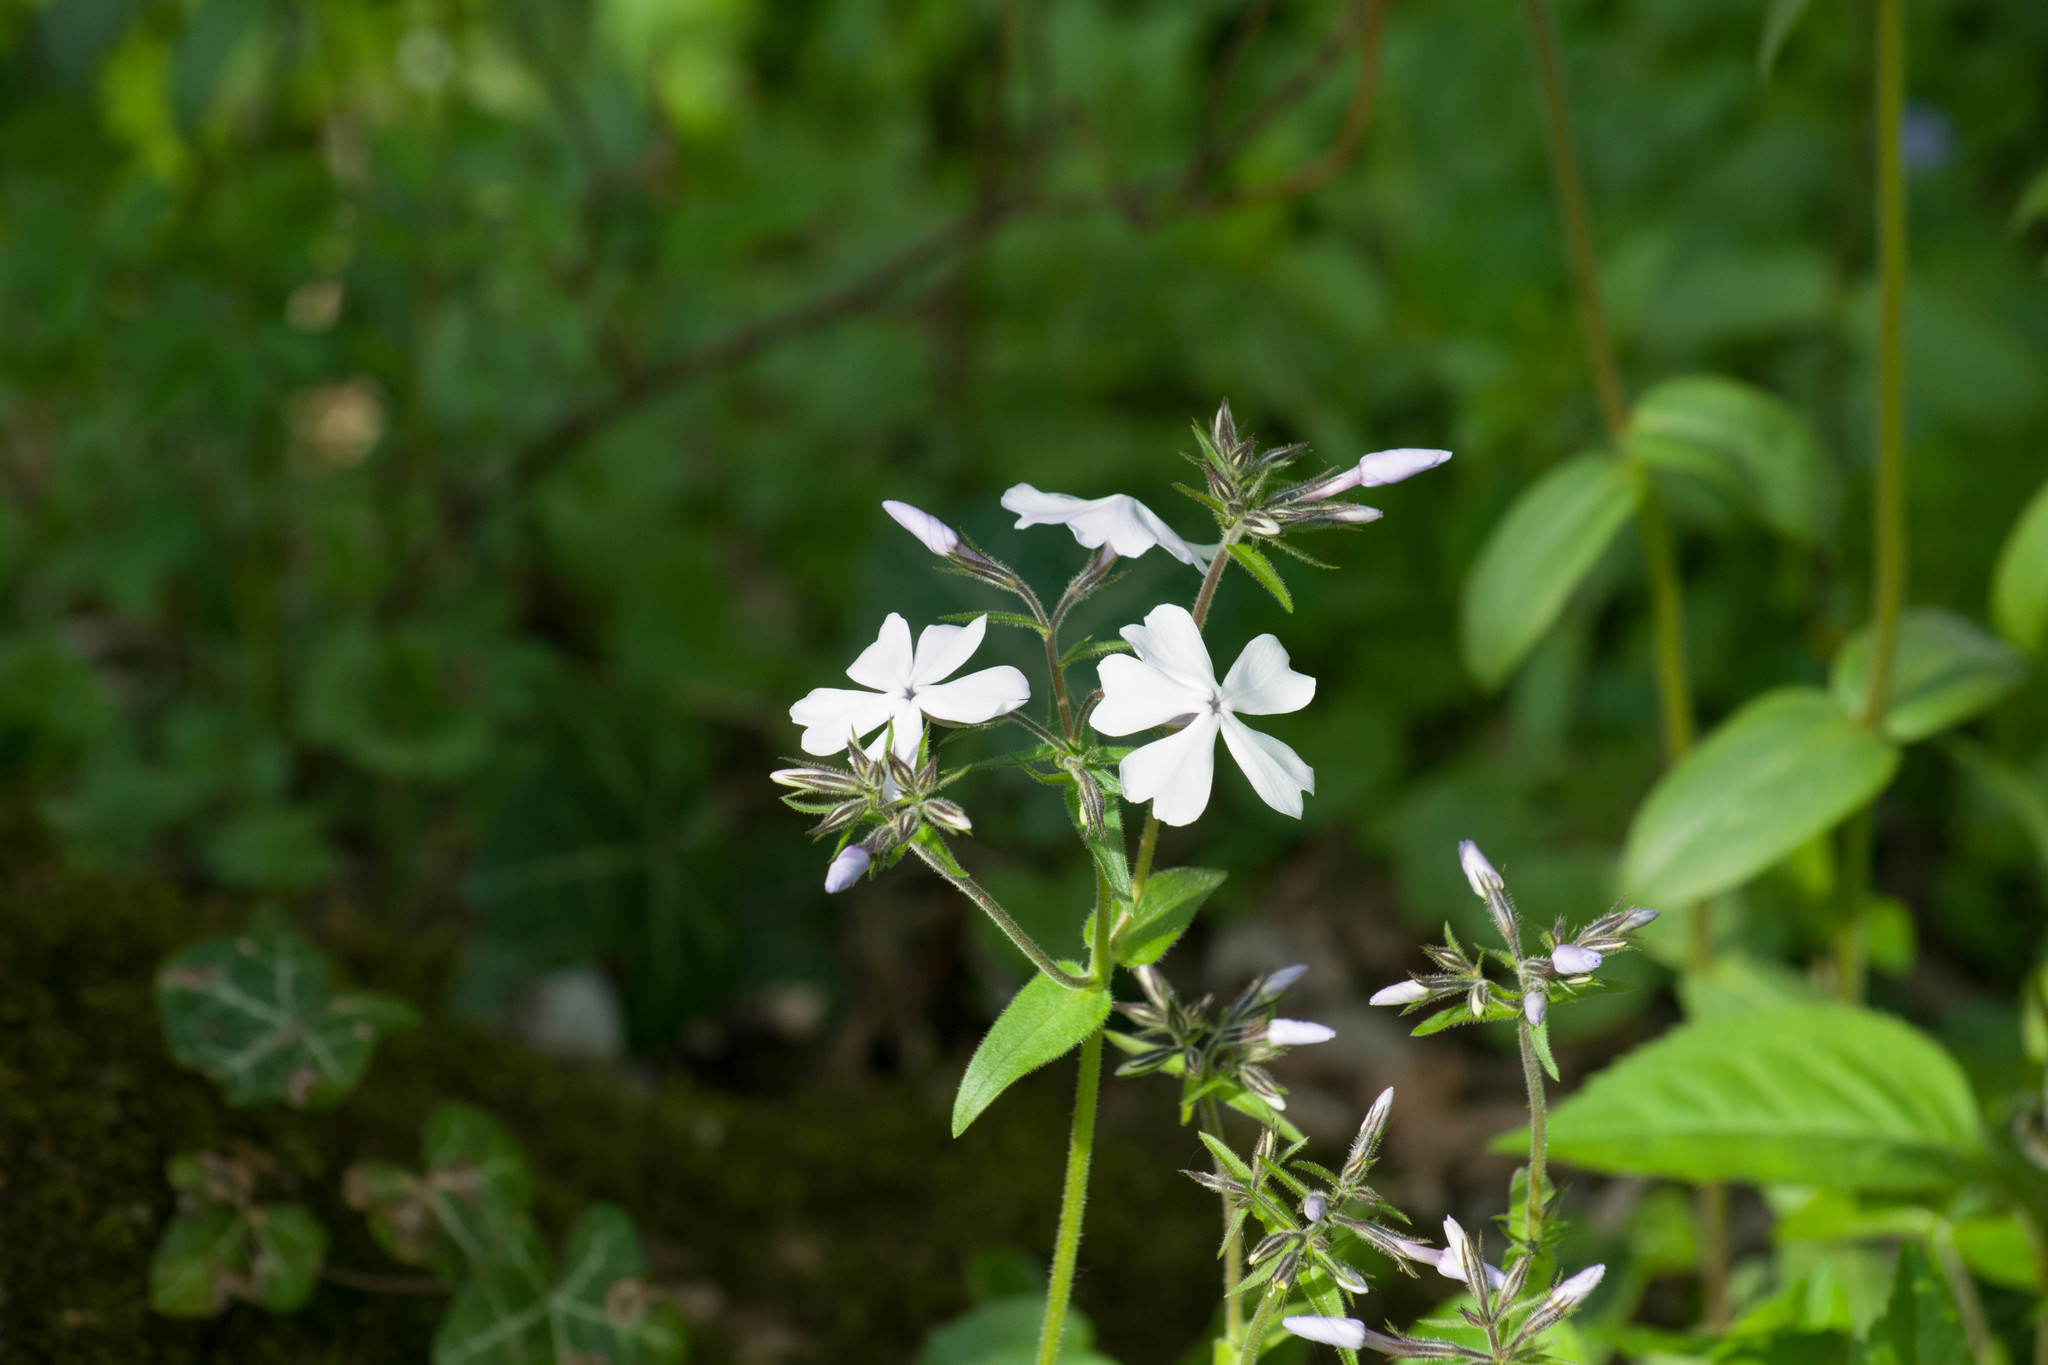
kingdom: Plantae
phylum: Tracheophyta
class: Magnoliopsida
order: Ericales
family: Polemoniaceae
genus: Phlox
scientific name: Phlox divaricata
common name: Blue phlox
